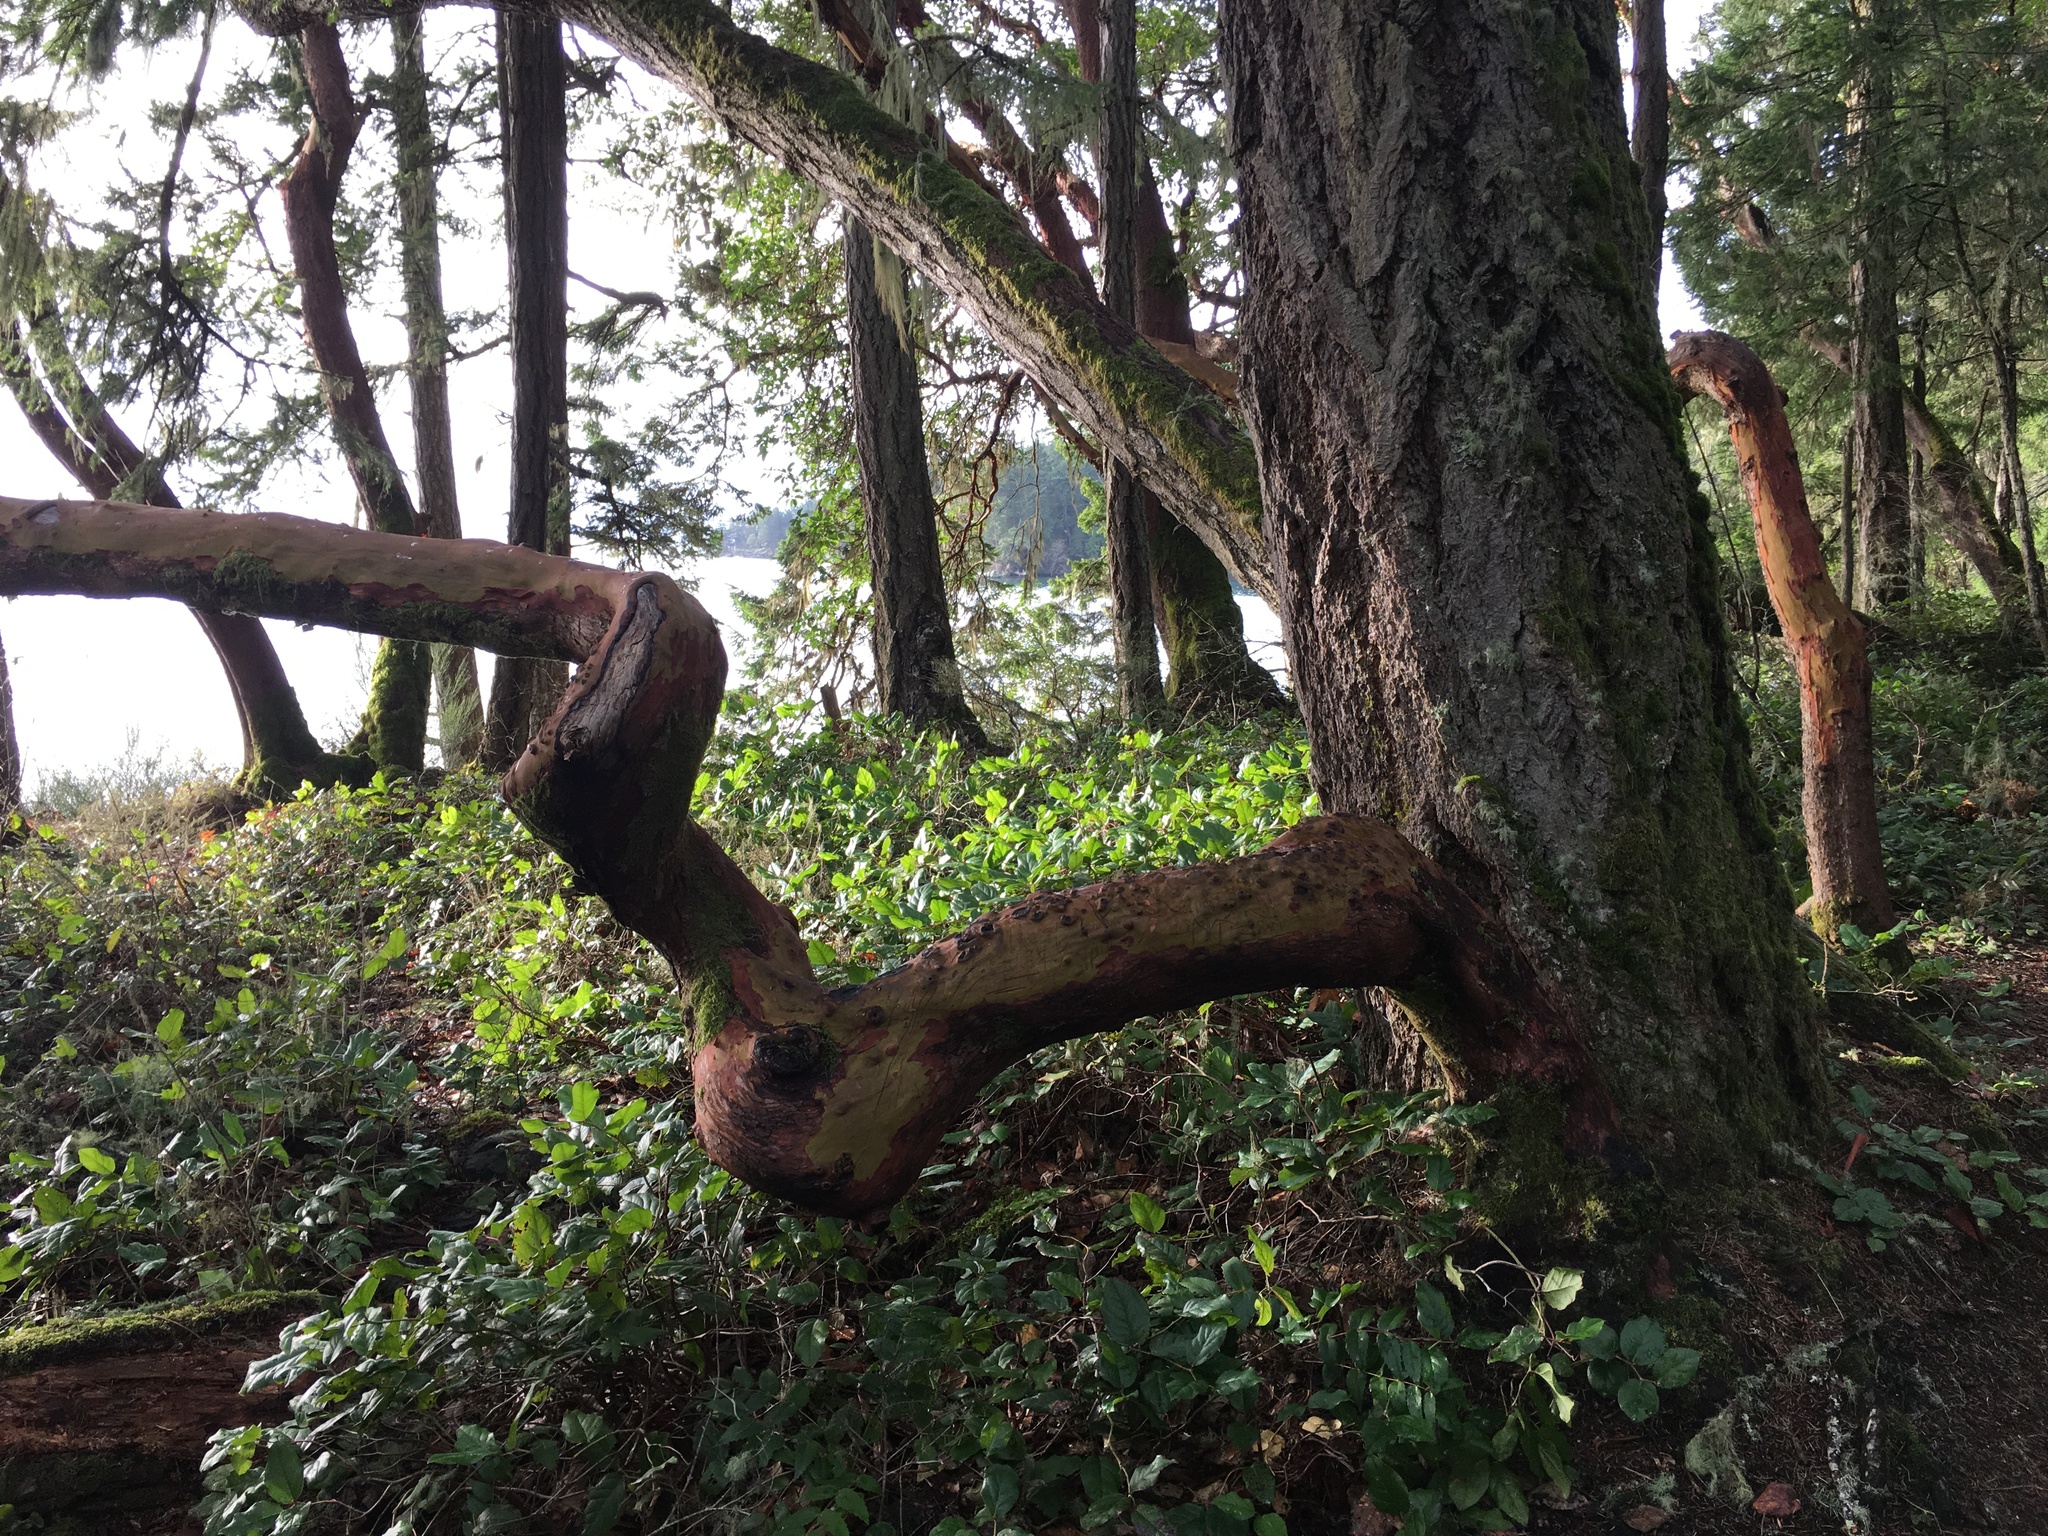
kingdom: Plantae
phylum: Tracheophyta
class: Magnoliopsida
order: Ericales
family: Ericaceae
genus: Arbutus
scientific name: Arbutus menziesii
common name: Pacific madrone
